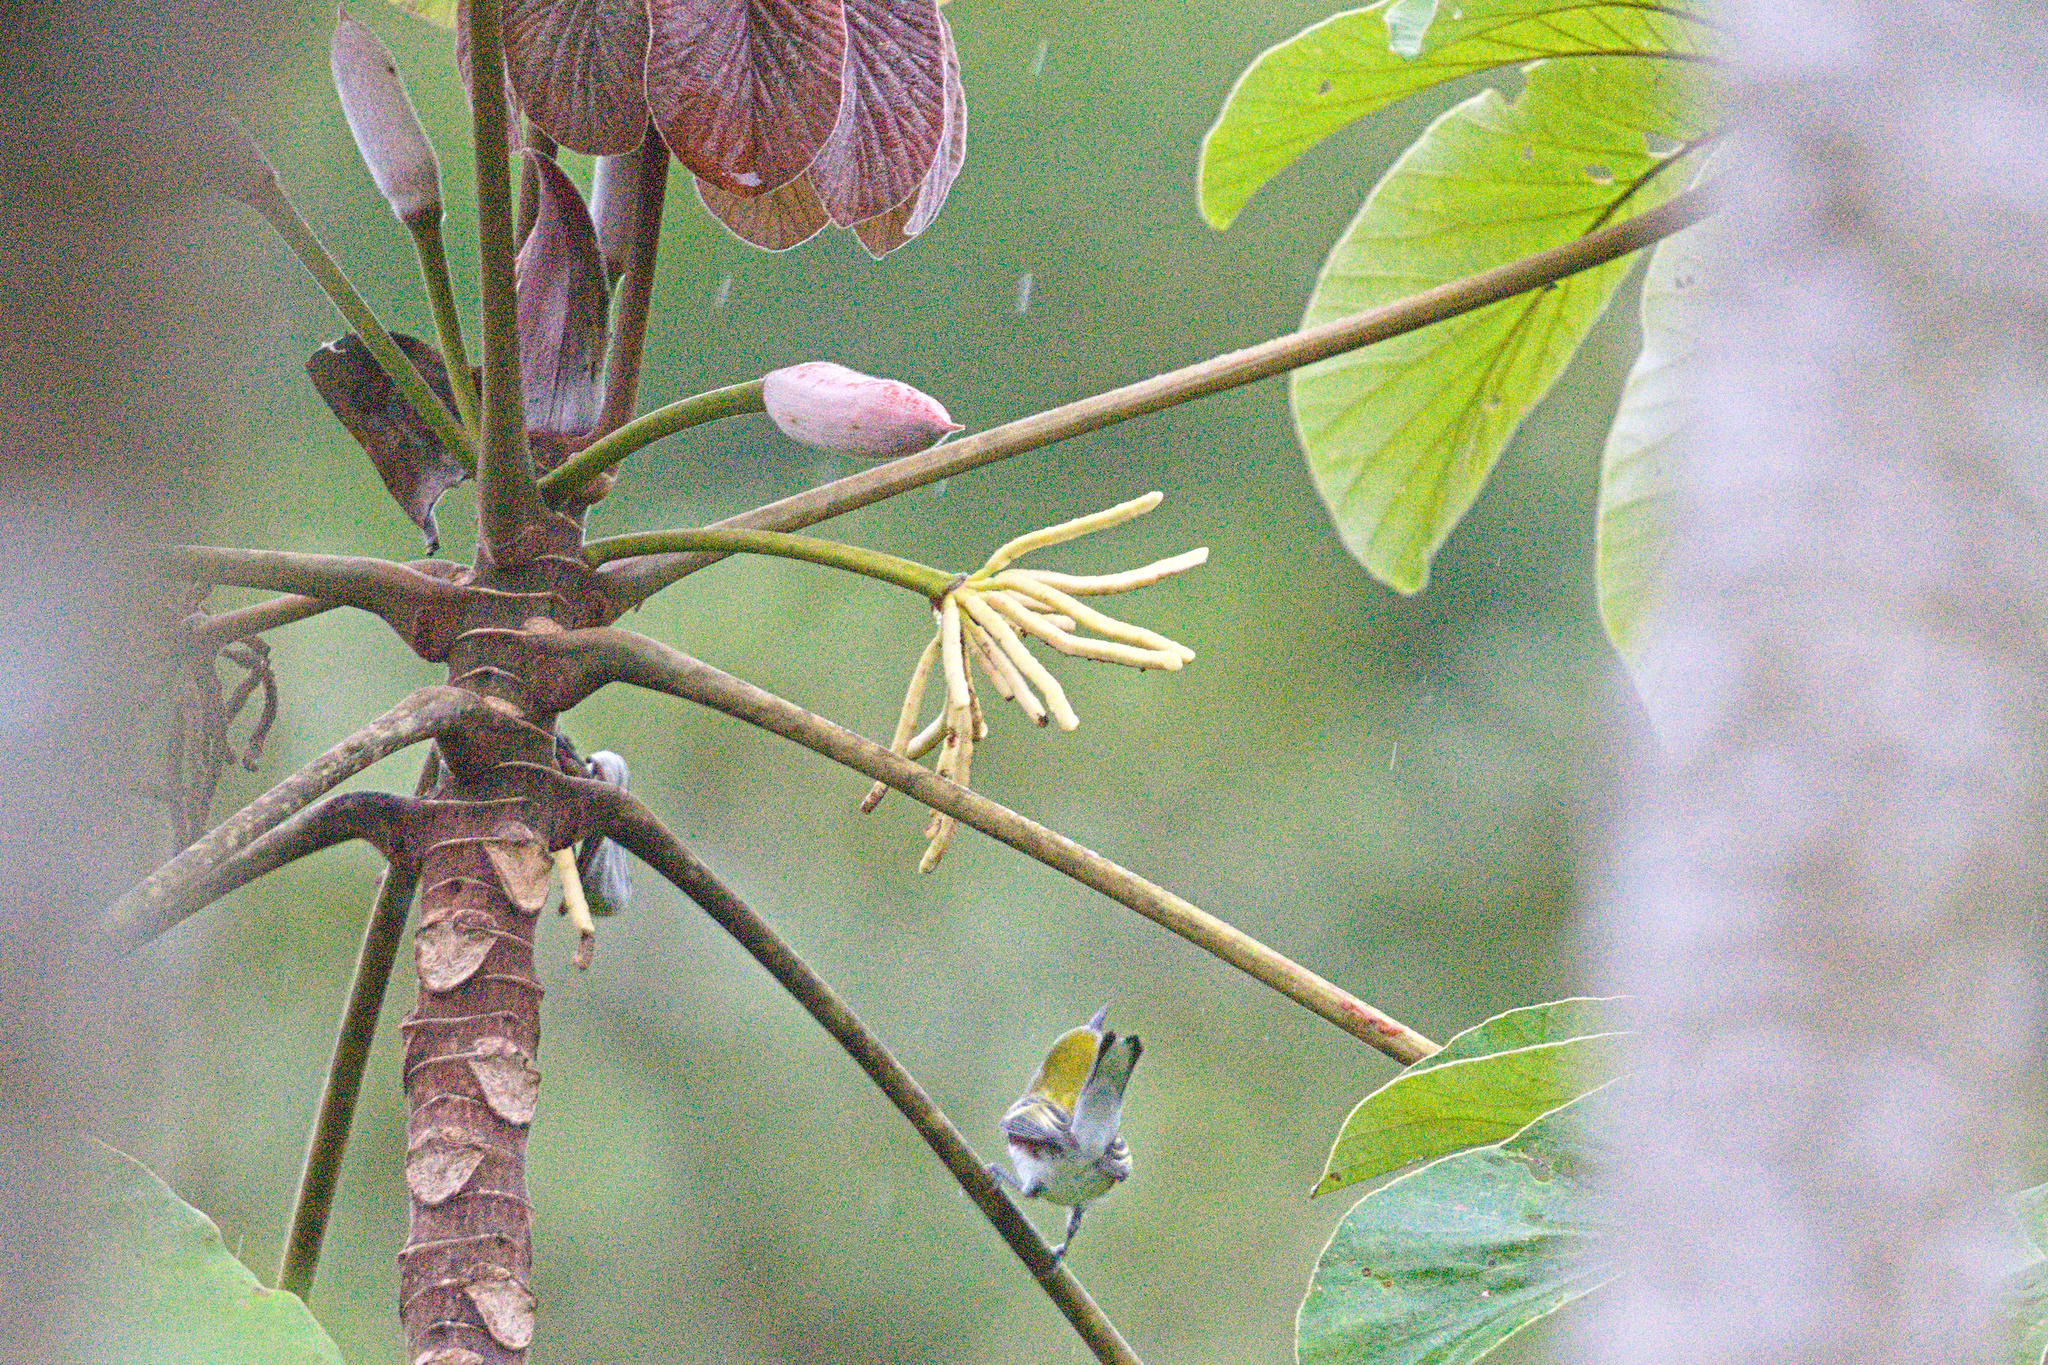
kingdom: Animalia
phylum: Chordata
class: Aves
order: Passeriformes
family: Parulidae
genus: Setophaga
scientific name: Setophaga pensylvanica
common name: Chestnut-sided warbler
